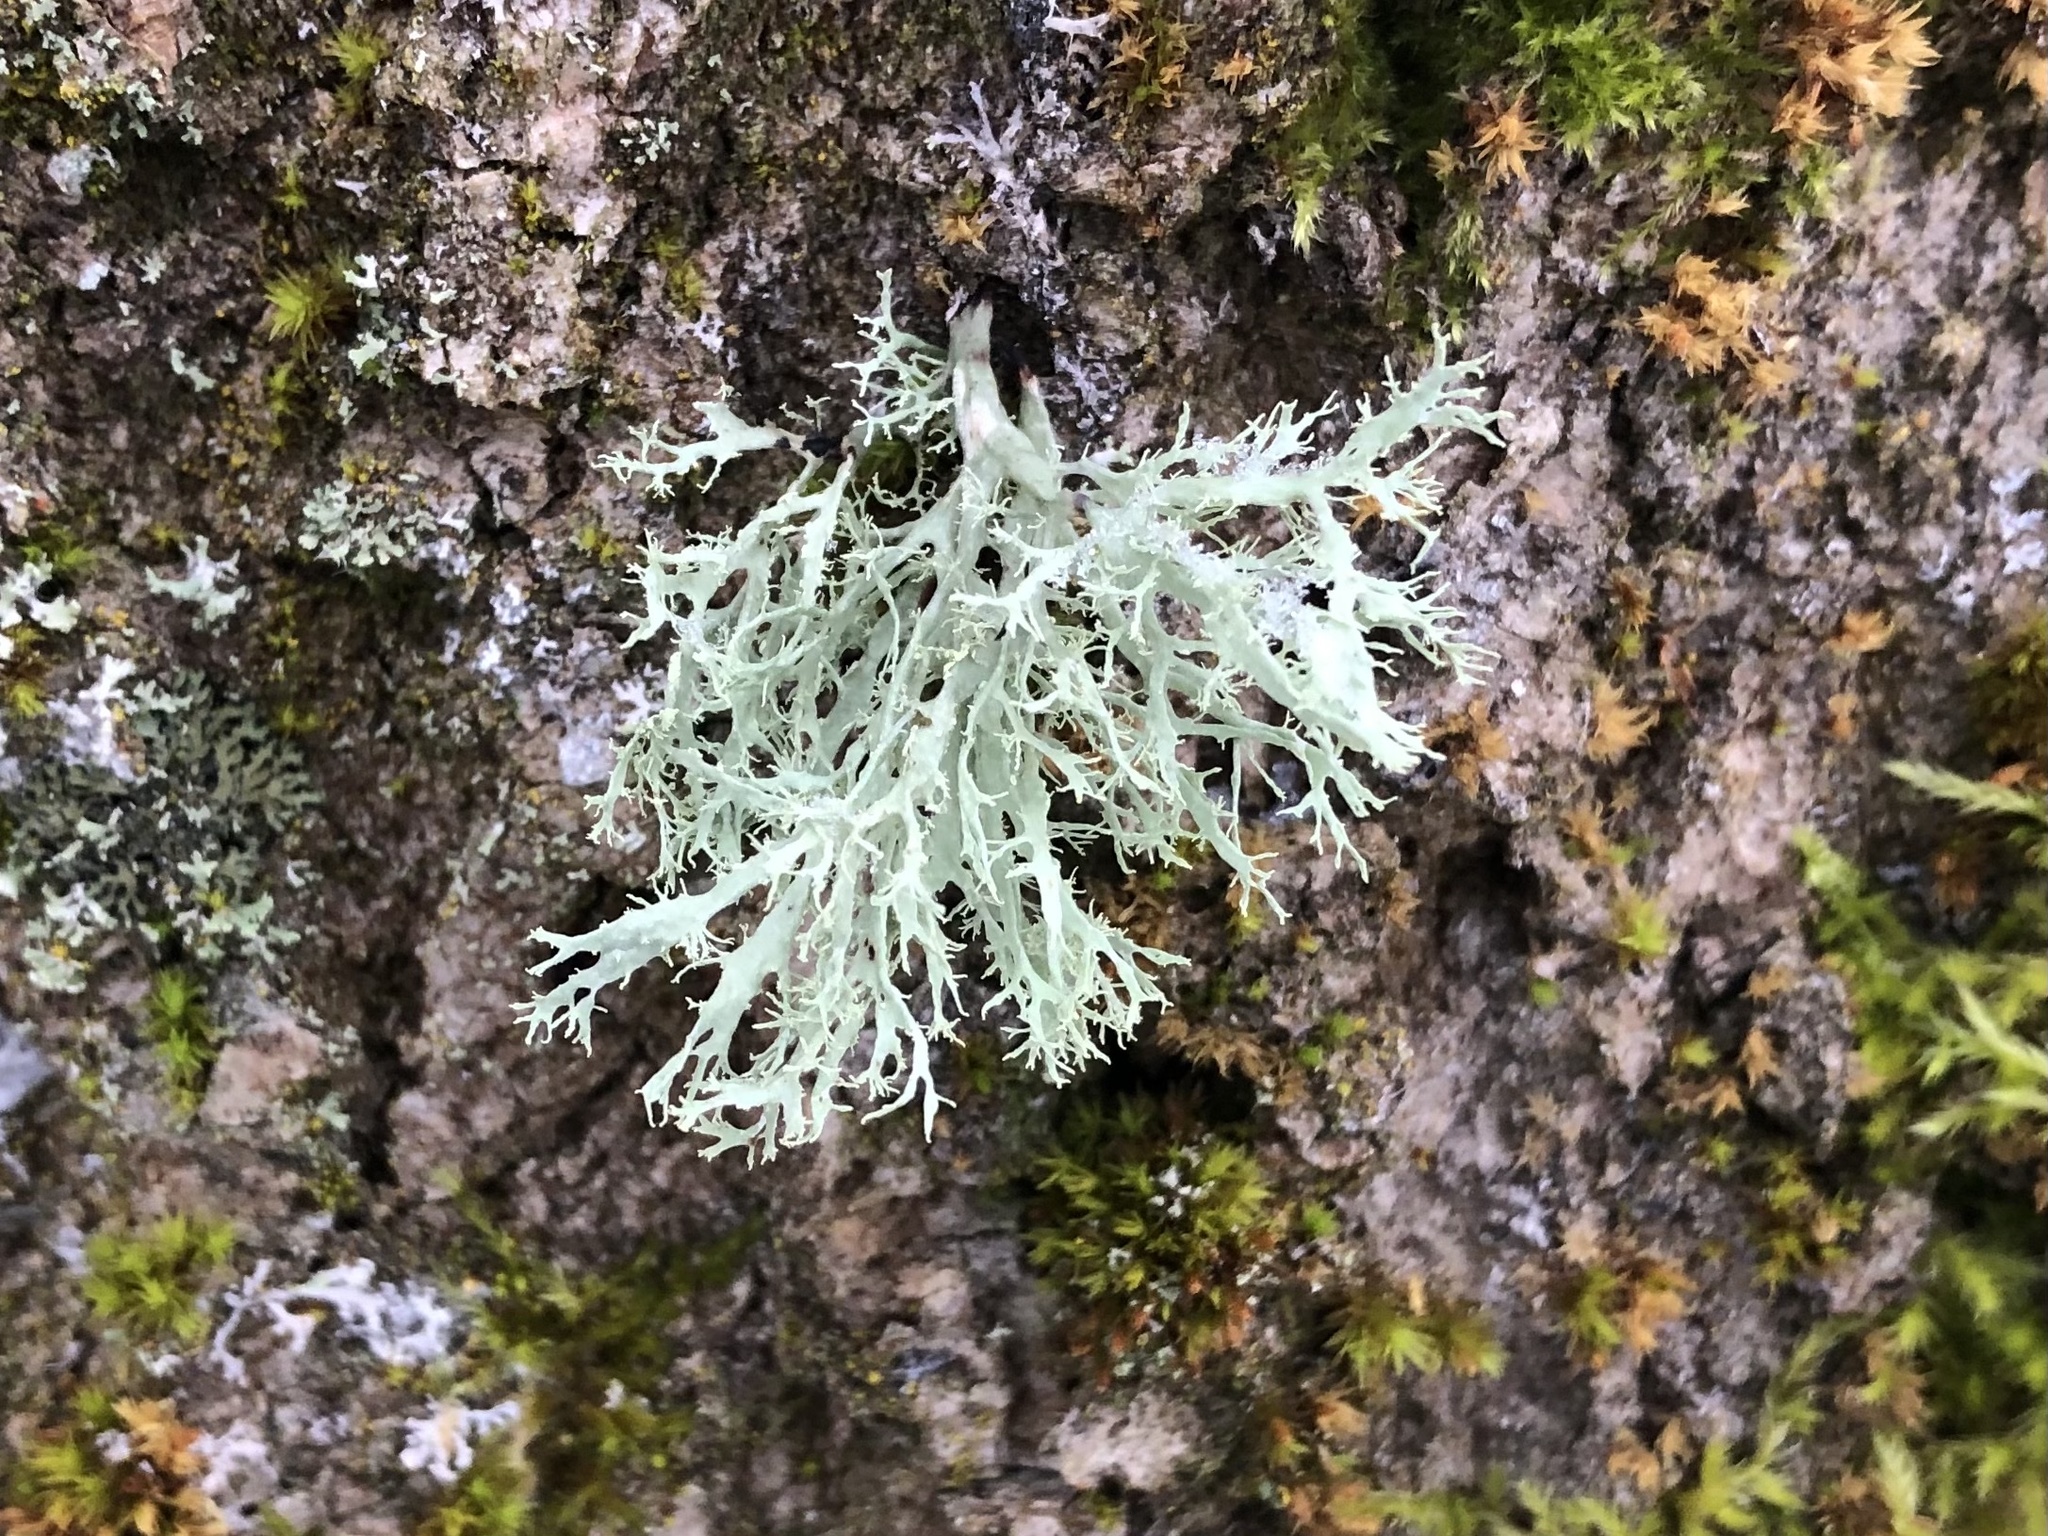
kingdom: Fungi
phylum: Ascomycota
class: Lecanoromycetes
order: Lecanorales
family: Ramalinaceae
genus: Ramalina
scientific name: Ramalina farinacea
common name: Farinose cartilage lichen
